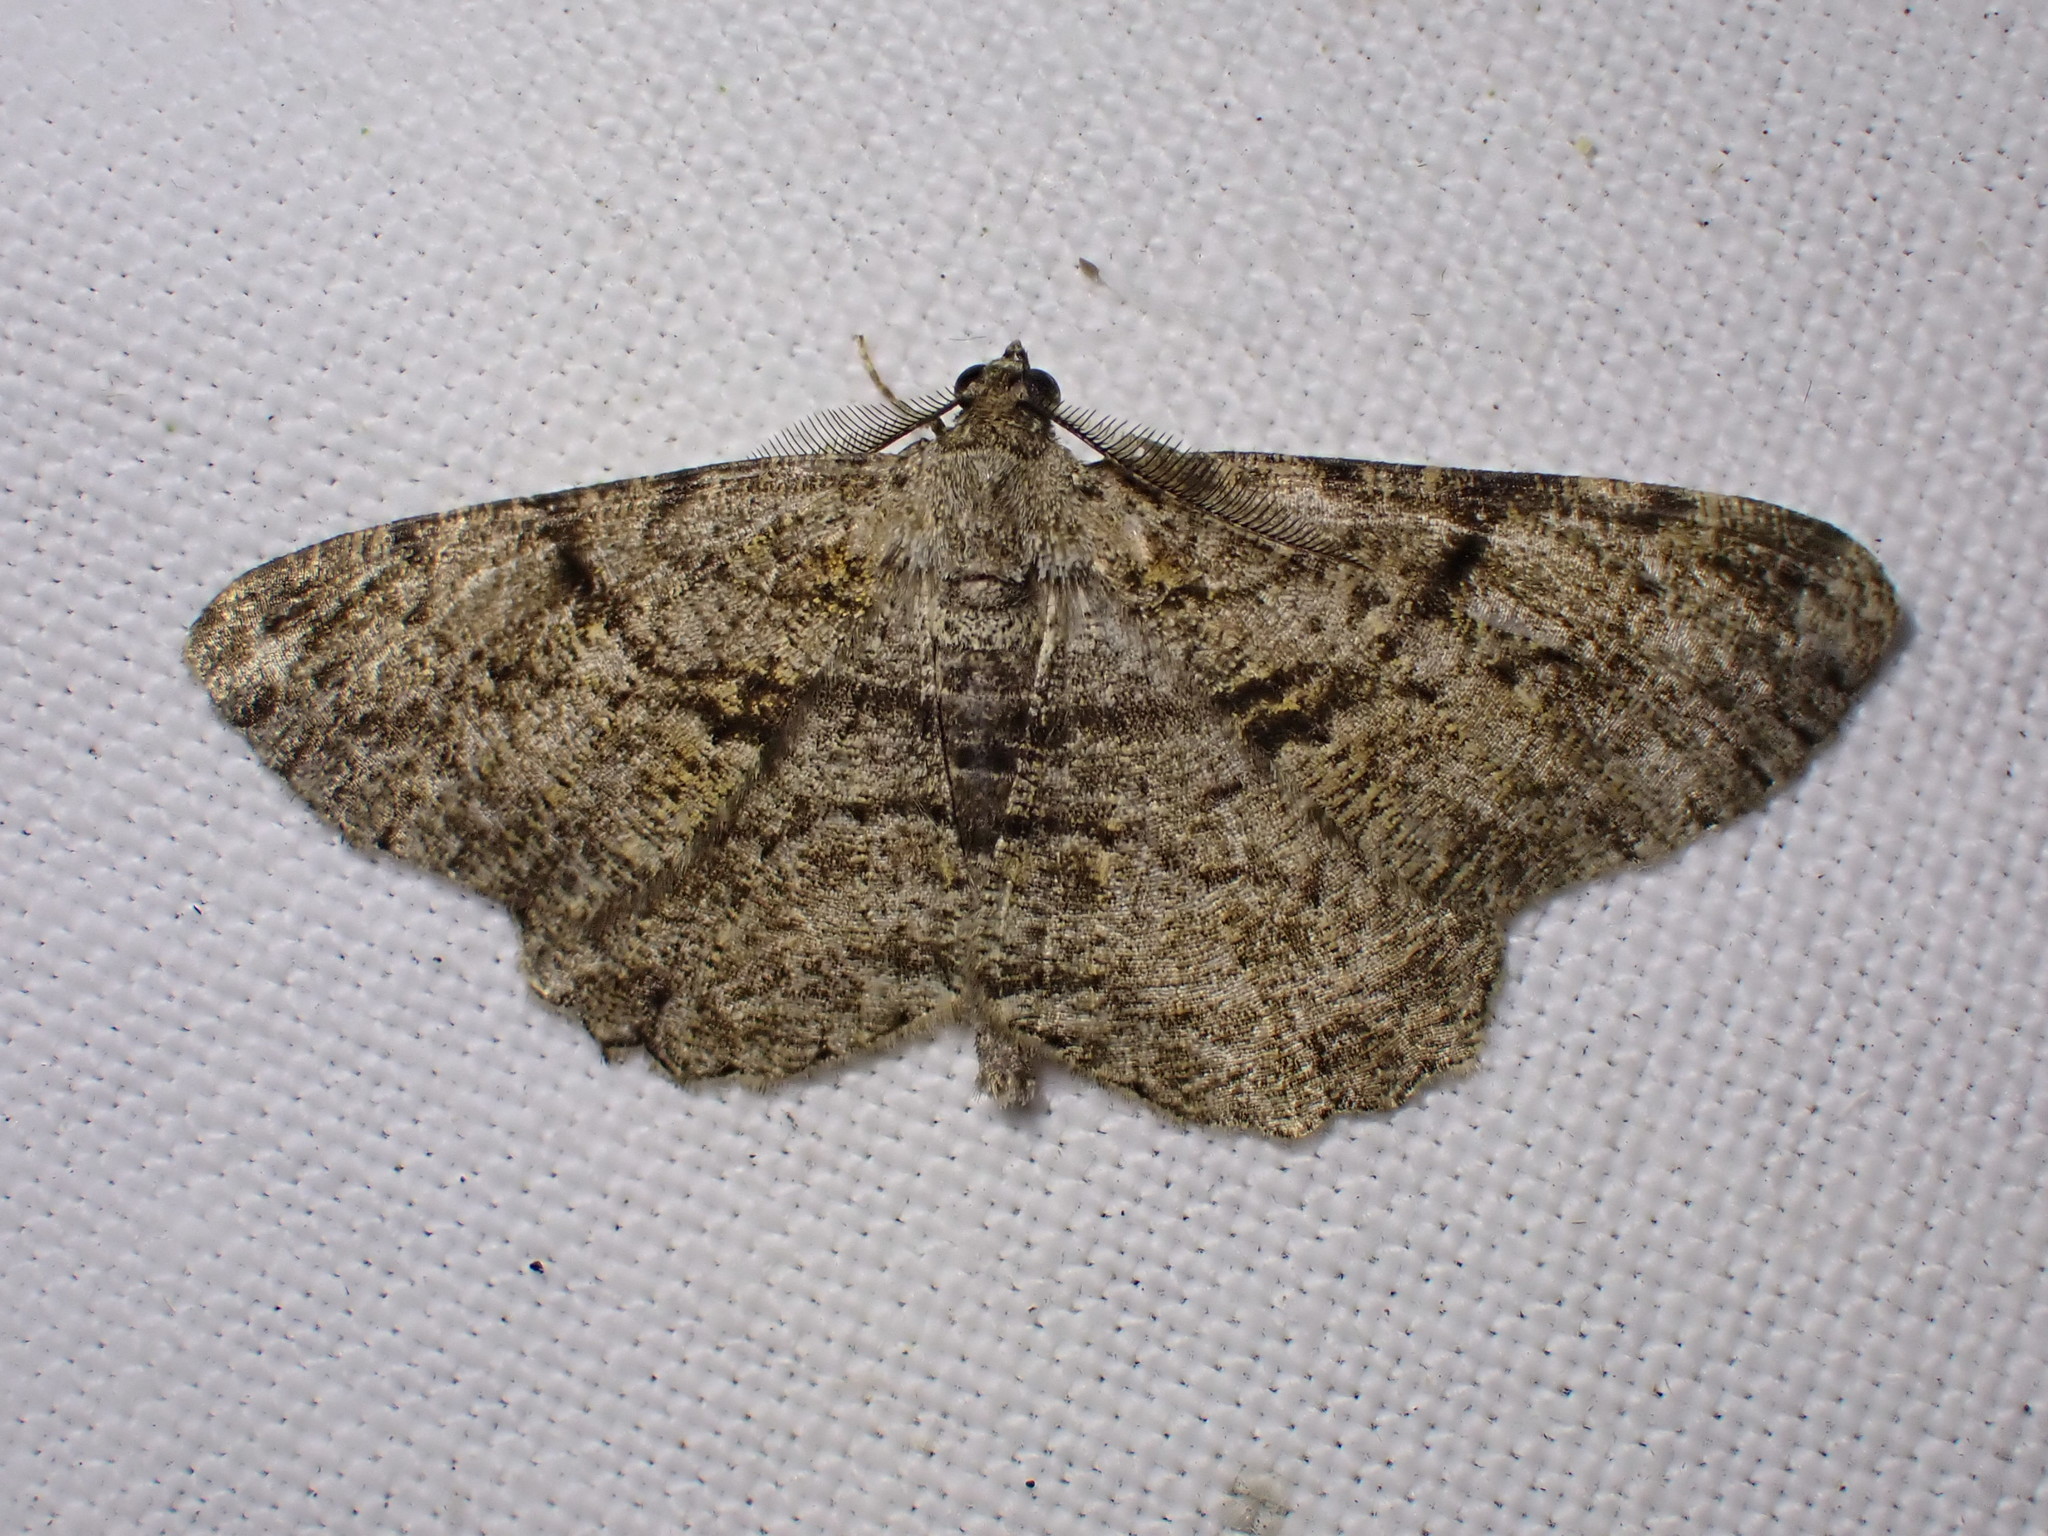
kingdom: Animalia
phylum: Arthropoda
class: Insecta
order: Lepidoptera
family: Geometridae
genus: Peribatodes
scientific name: Peribatodes rhomboidaria
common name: Willow beauty
